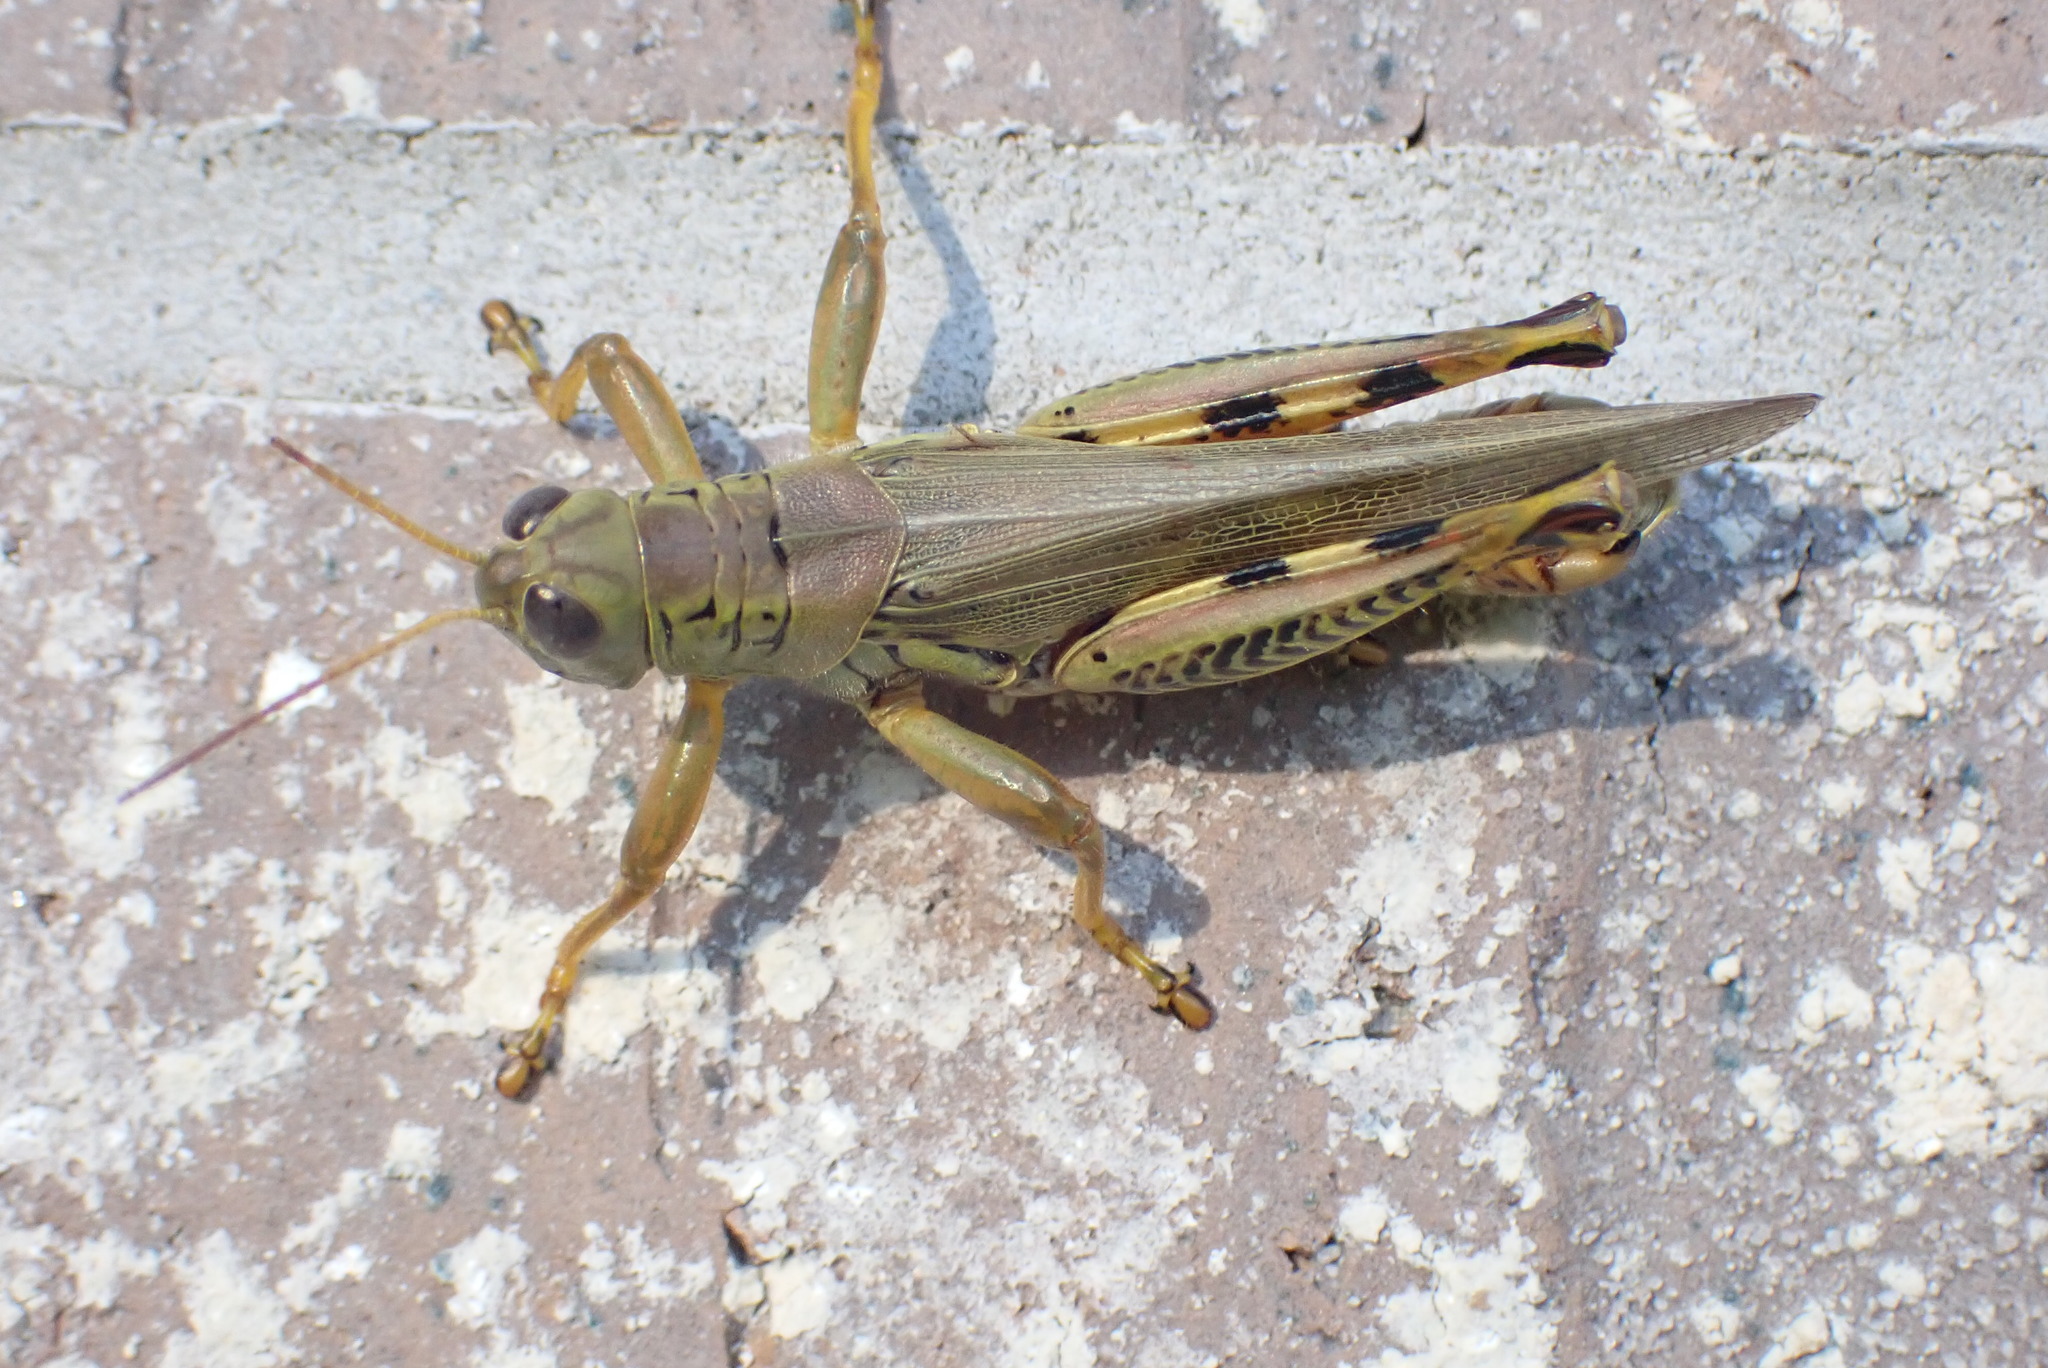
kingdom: Animalia
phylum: Arthropoda
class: Insecta
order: Orthoptera
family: Acrididae
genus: Melanoplus
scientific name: Melanoplus differentialis
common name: Differential grasshopper
